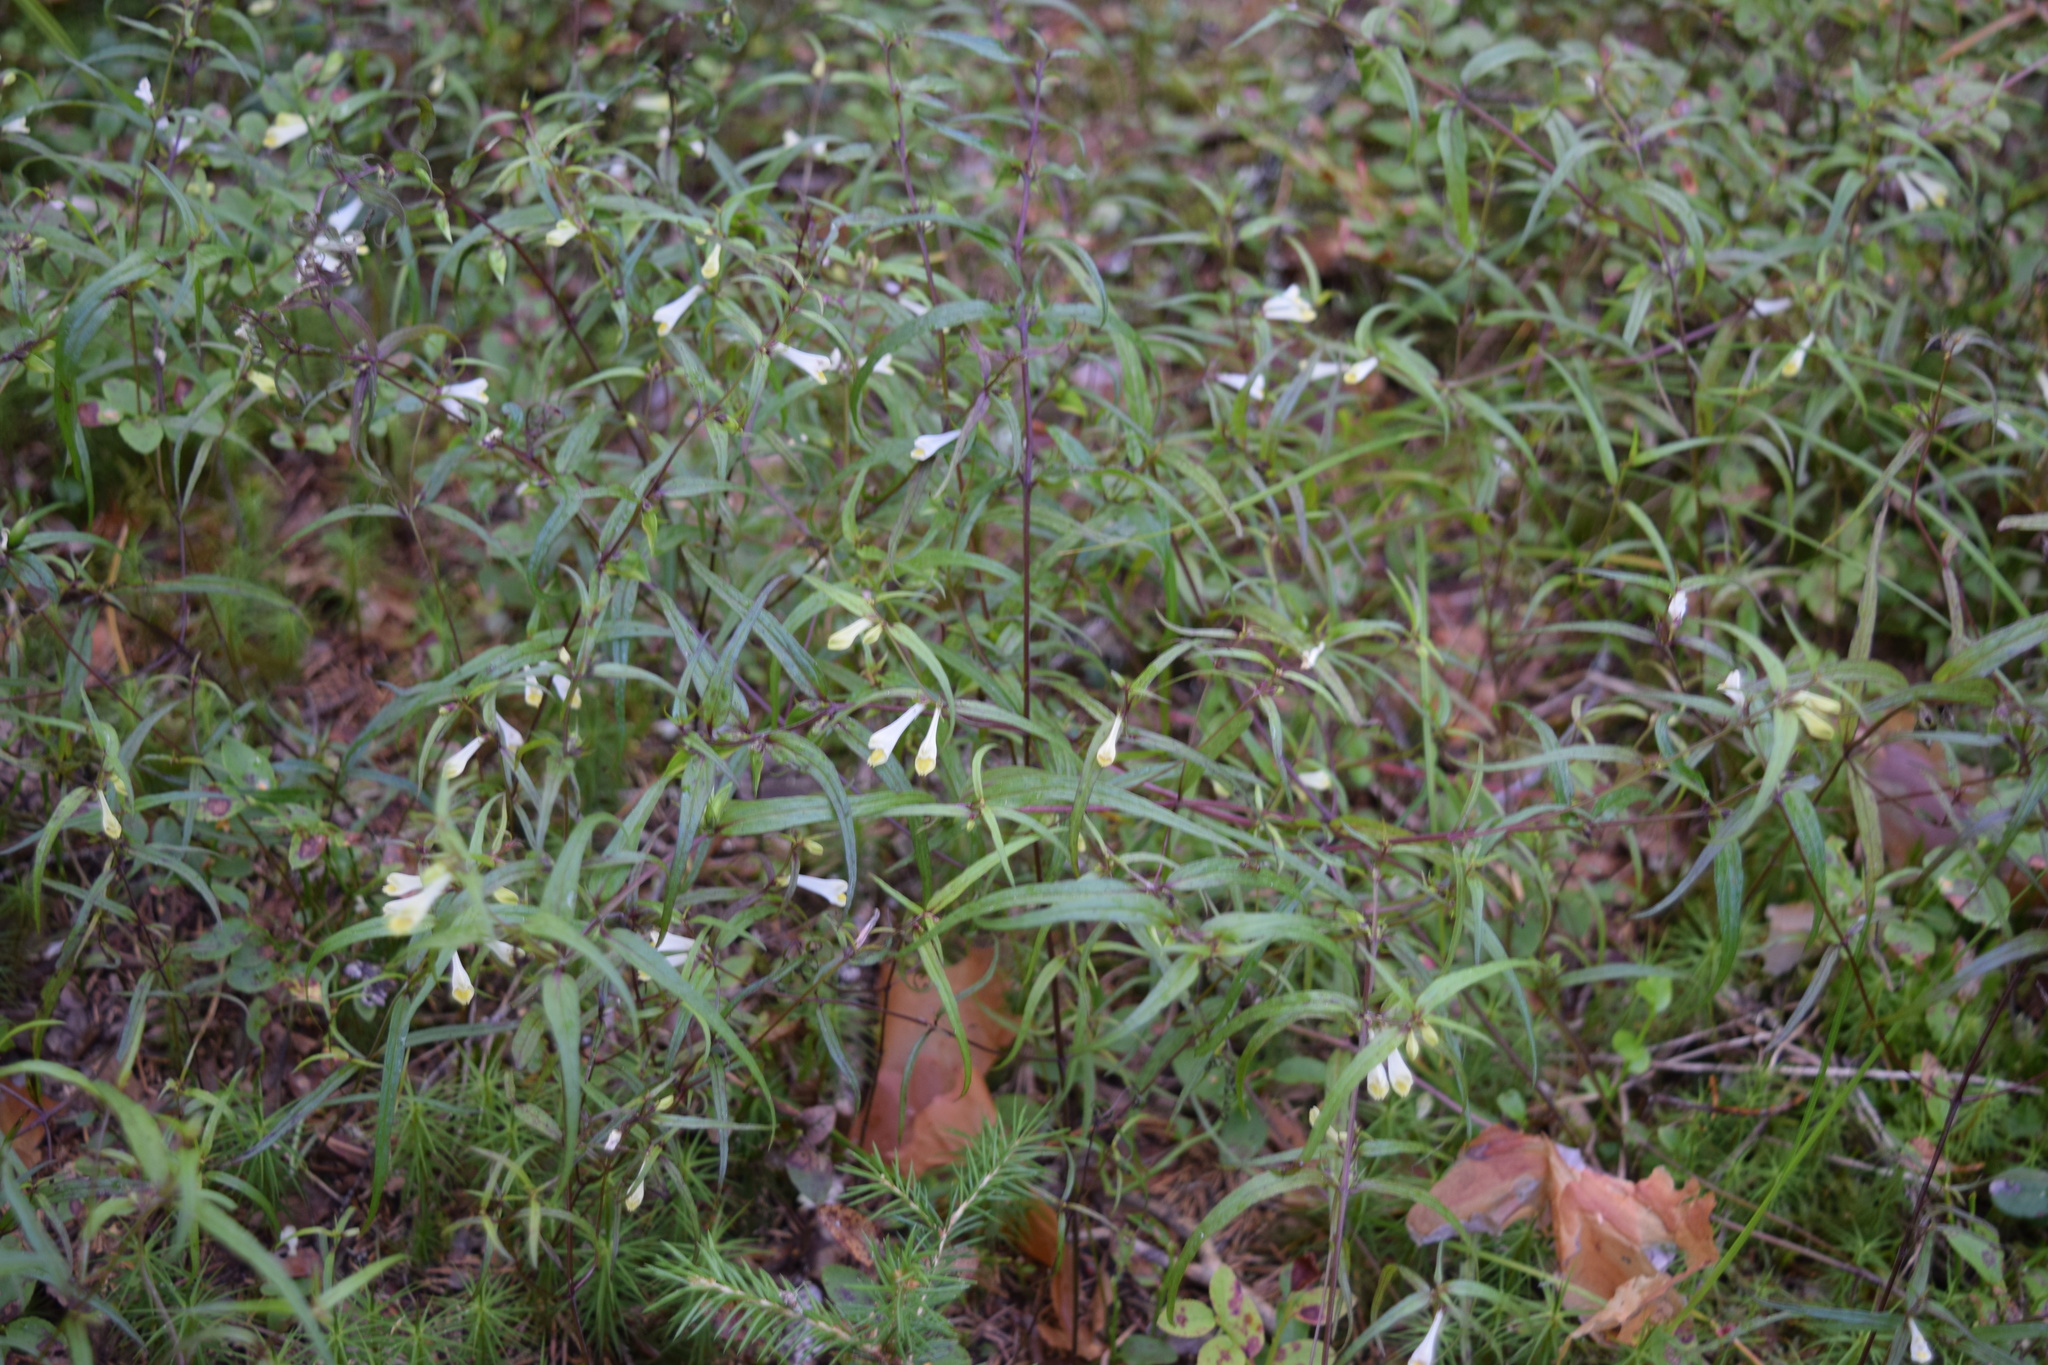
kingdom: Plantae
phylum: Tracheophyta
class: Magnoliopsida
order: Lamiales
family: Orobanchaceae
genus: Melampyrum
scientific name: Melampyrum pratense
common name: Common cow-wheat
